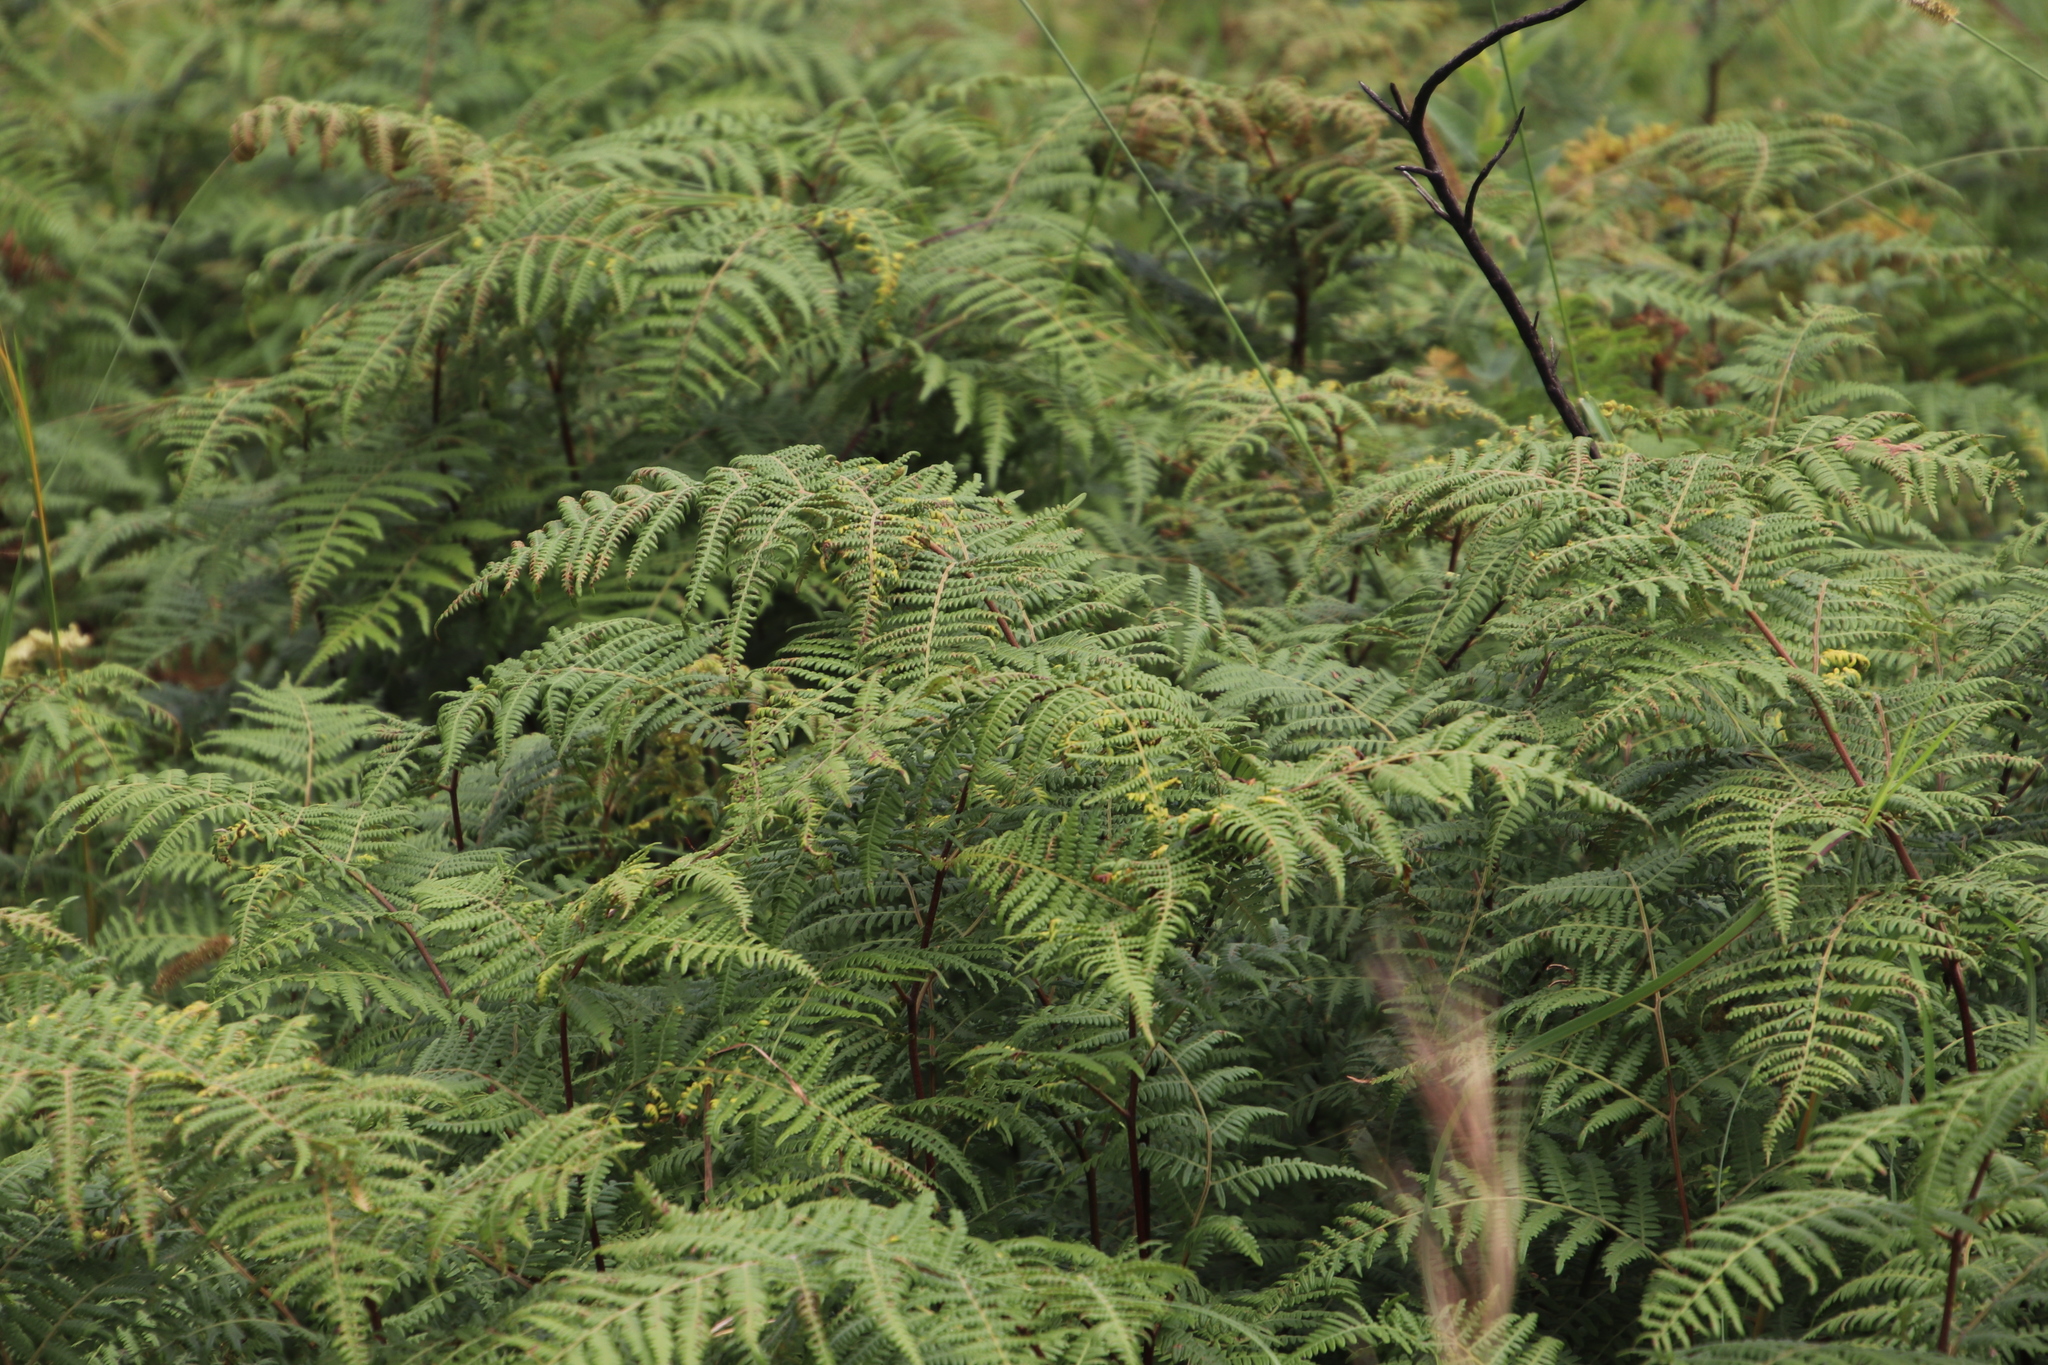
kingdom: Plantae
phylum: Tracheophyta
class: Polypodiopsida
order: Polypodiales
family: Dennstaedtiaceae
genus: Pteridium
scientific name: Pteridium aquilinum
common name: Bracken
